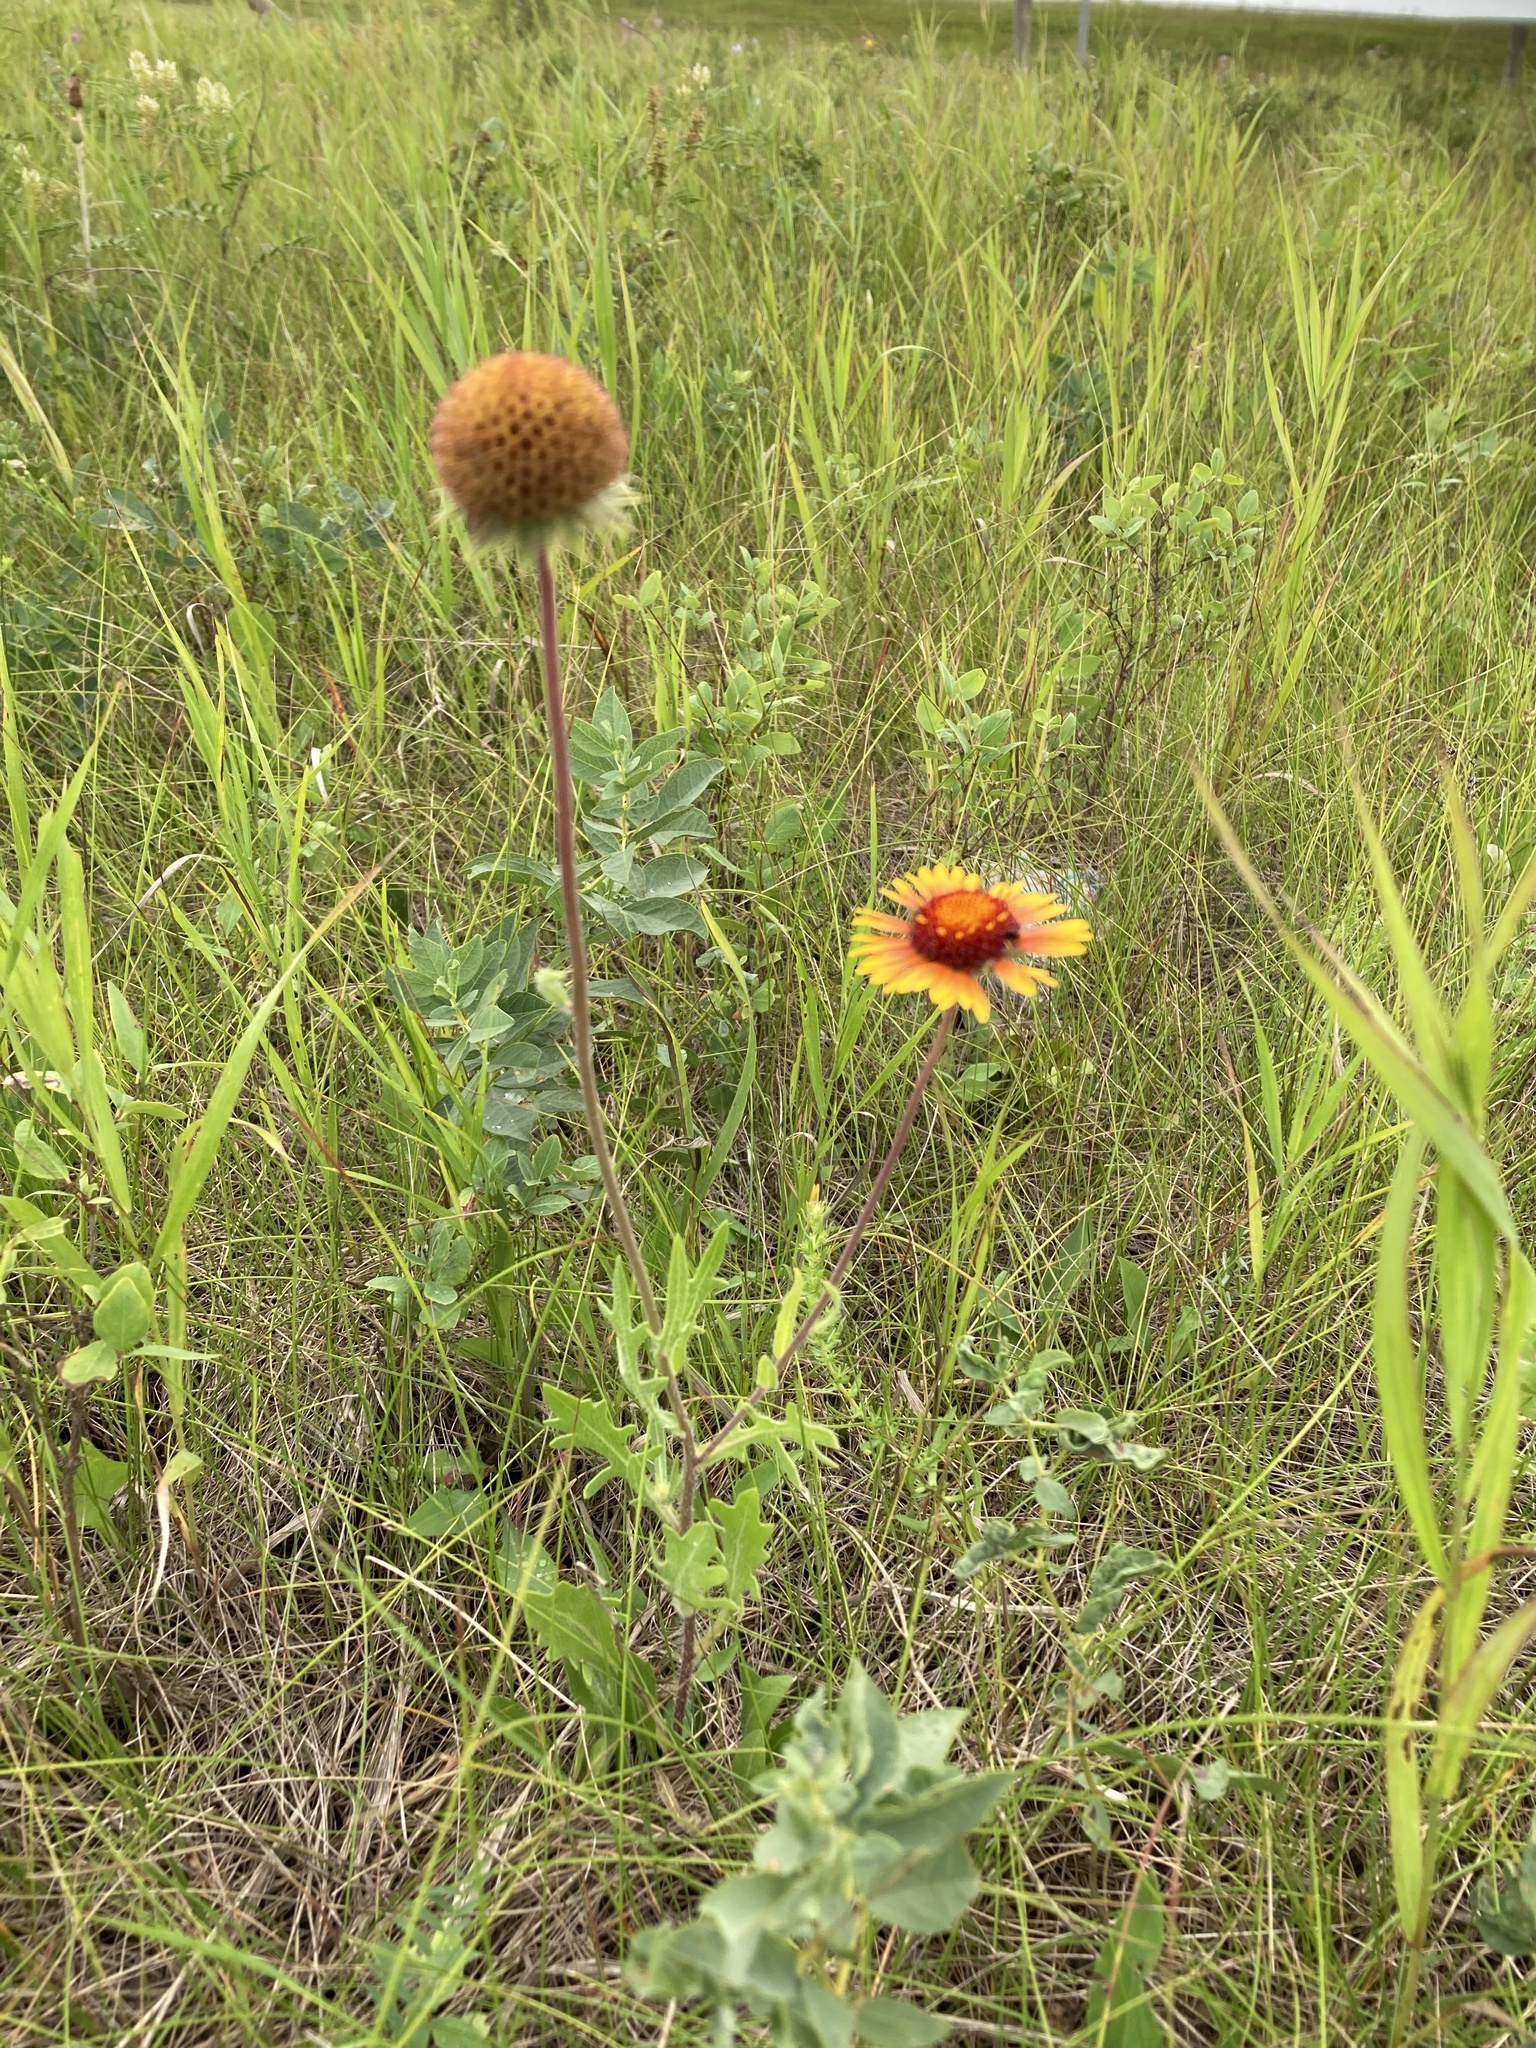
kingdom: Plantae
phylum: Tracheophyta
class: Magnoliopsida
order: Asterales
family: Asteraceae
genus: Gaillardia
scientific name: Gaillardia aristata
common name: Blanket-flower
